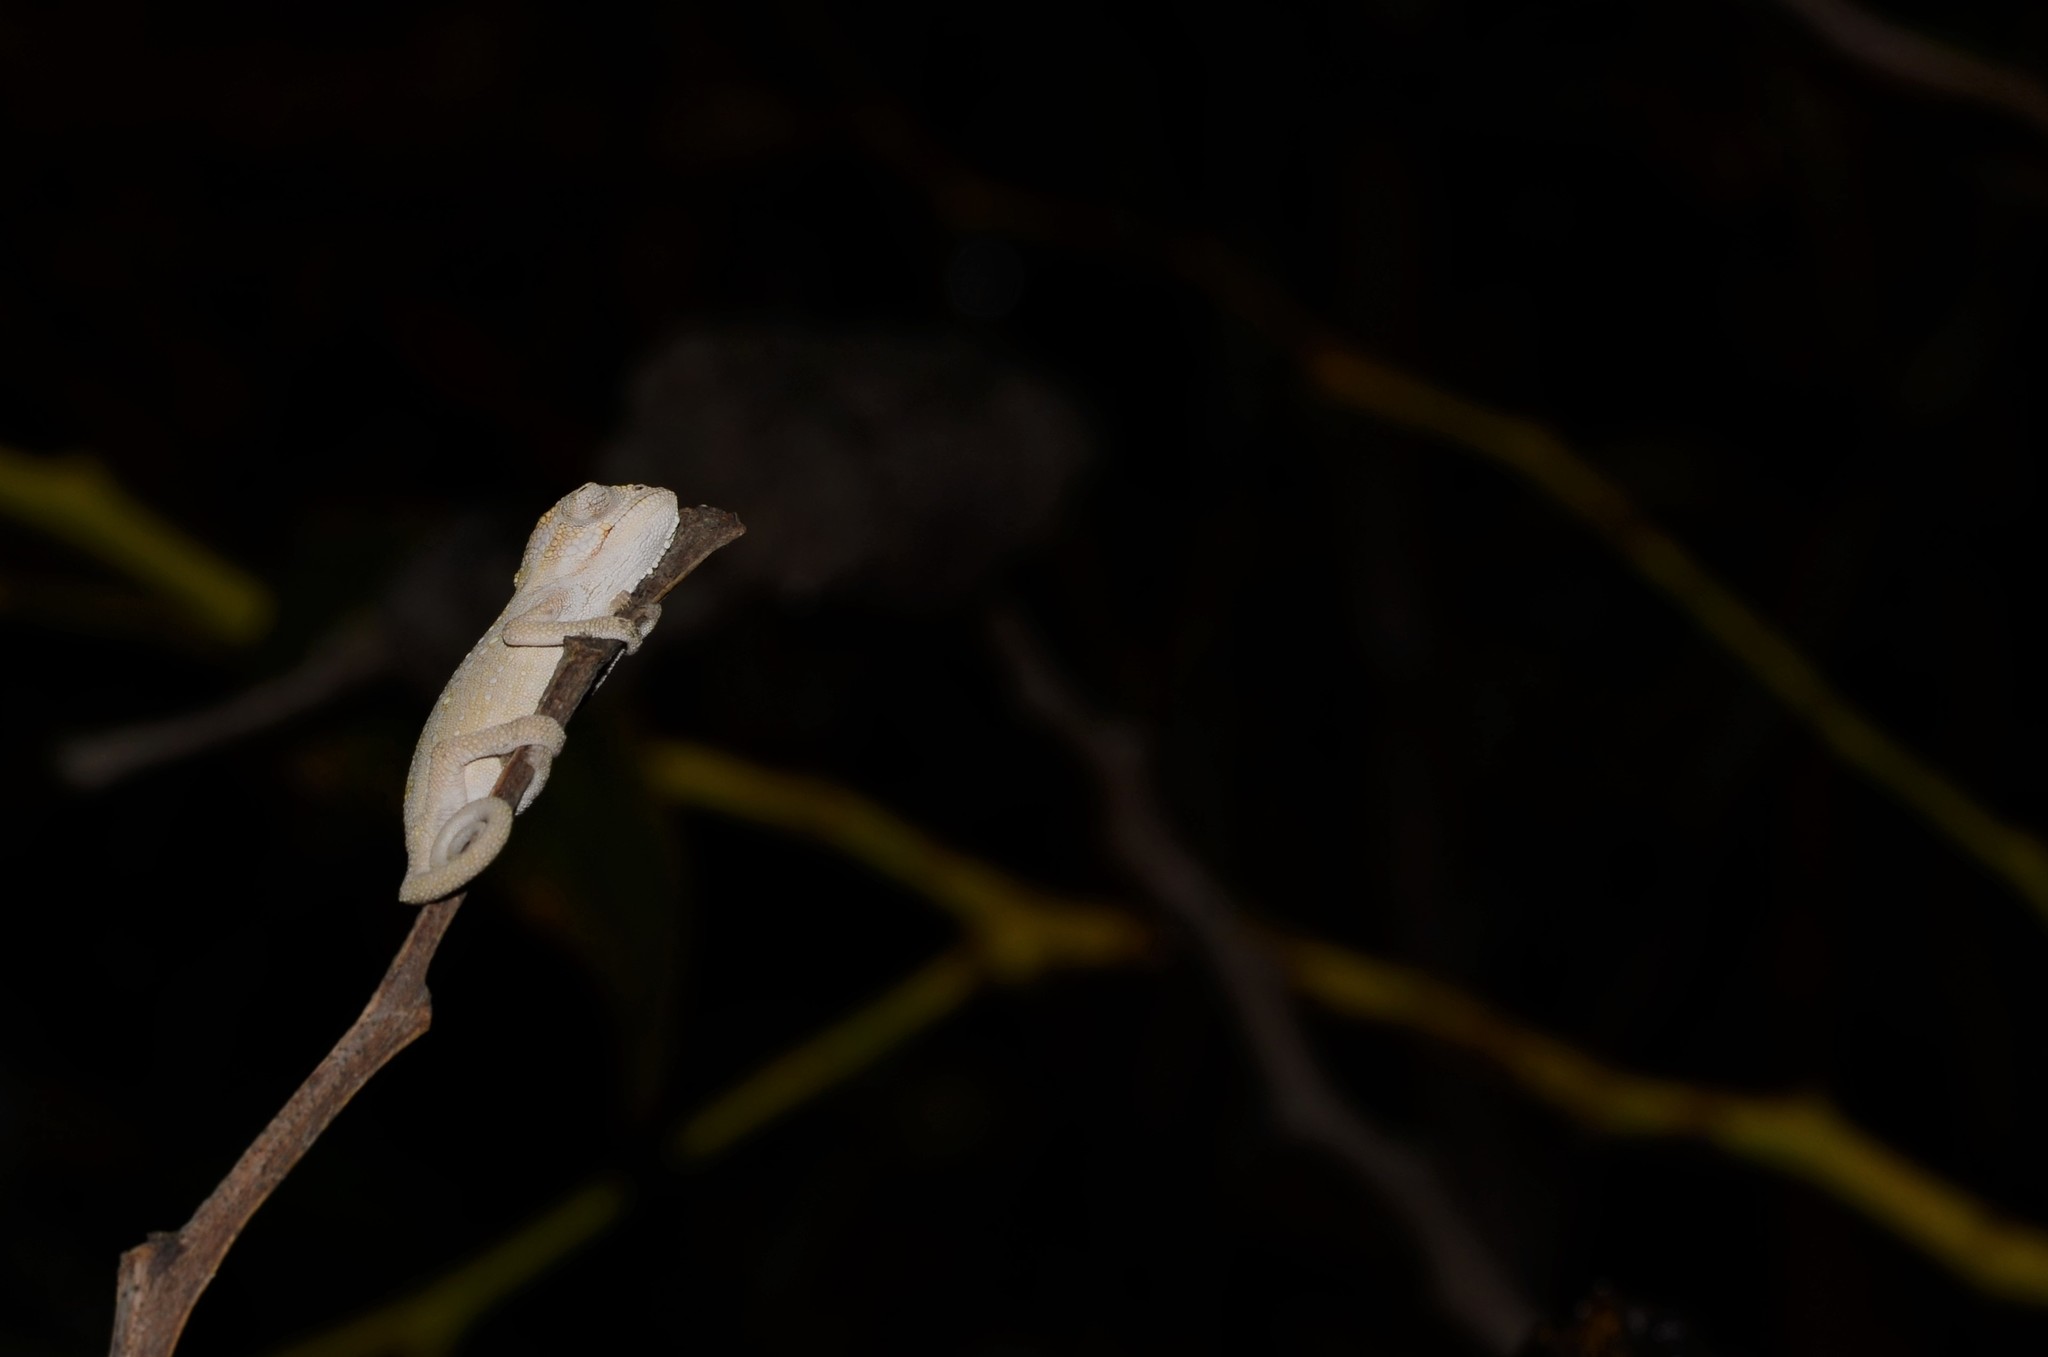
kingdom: Animalia
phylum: Chordata
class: Squamata
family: Chamaeleonidae
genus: Bradypodion
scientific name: Bradypodion pumilum
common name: Cape dwarf chameleon
